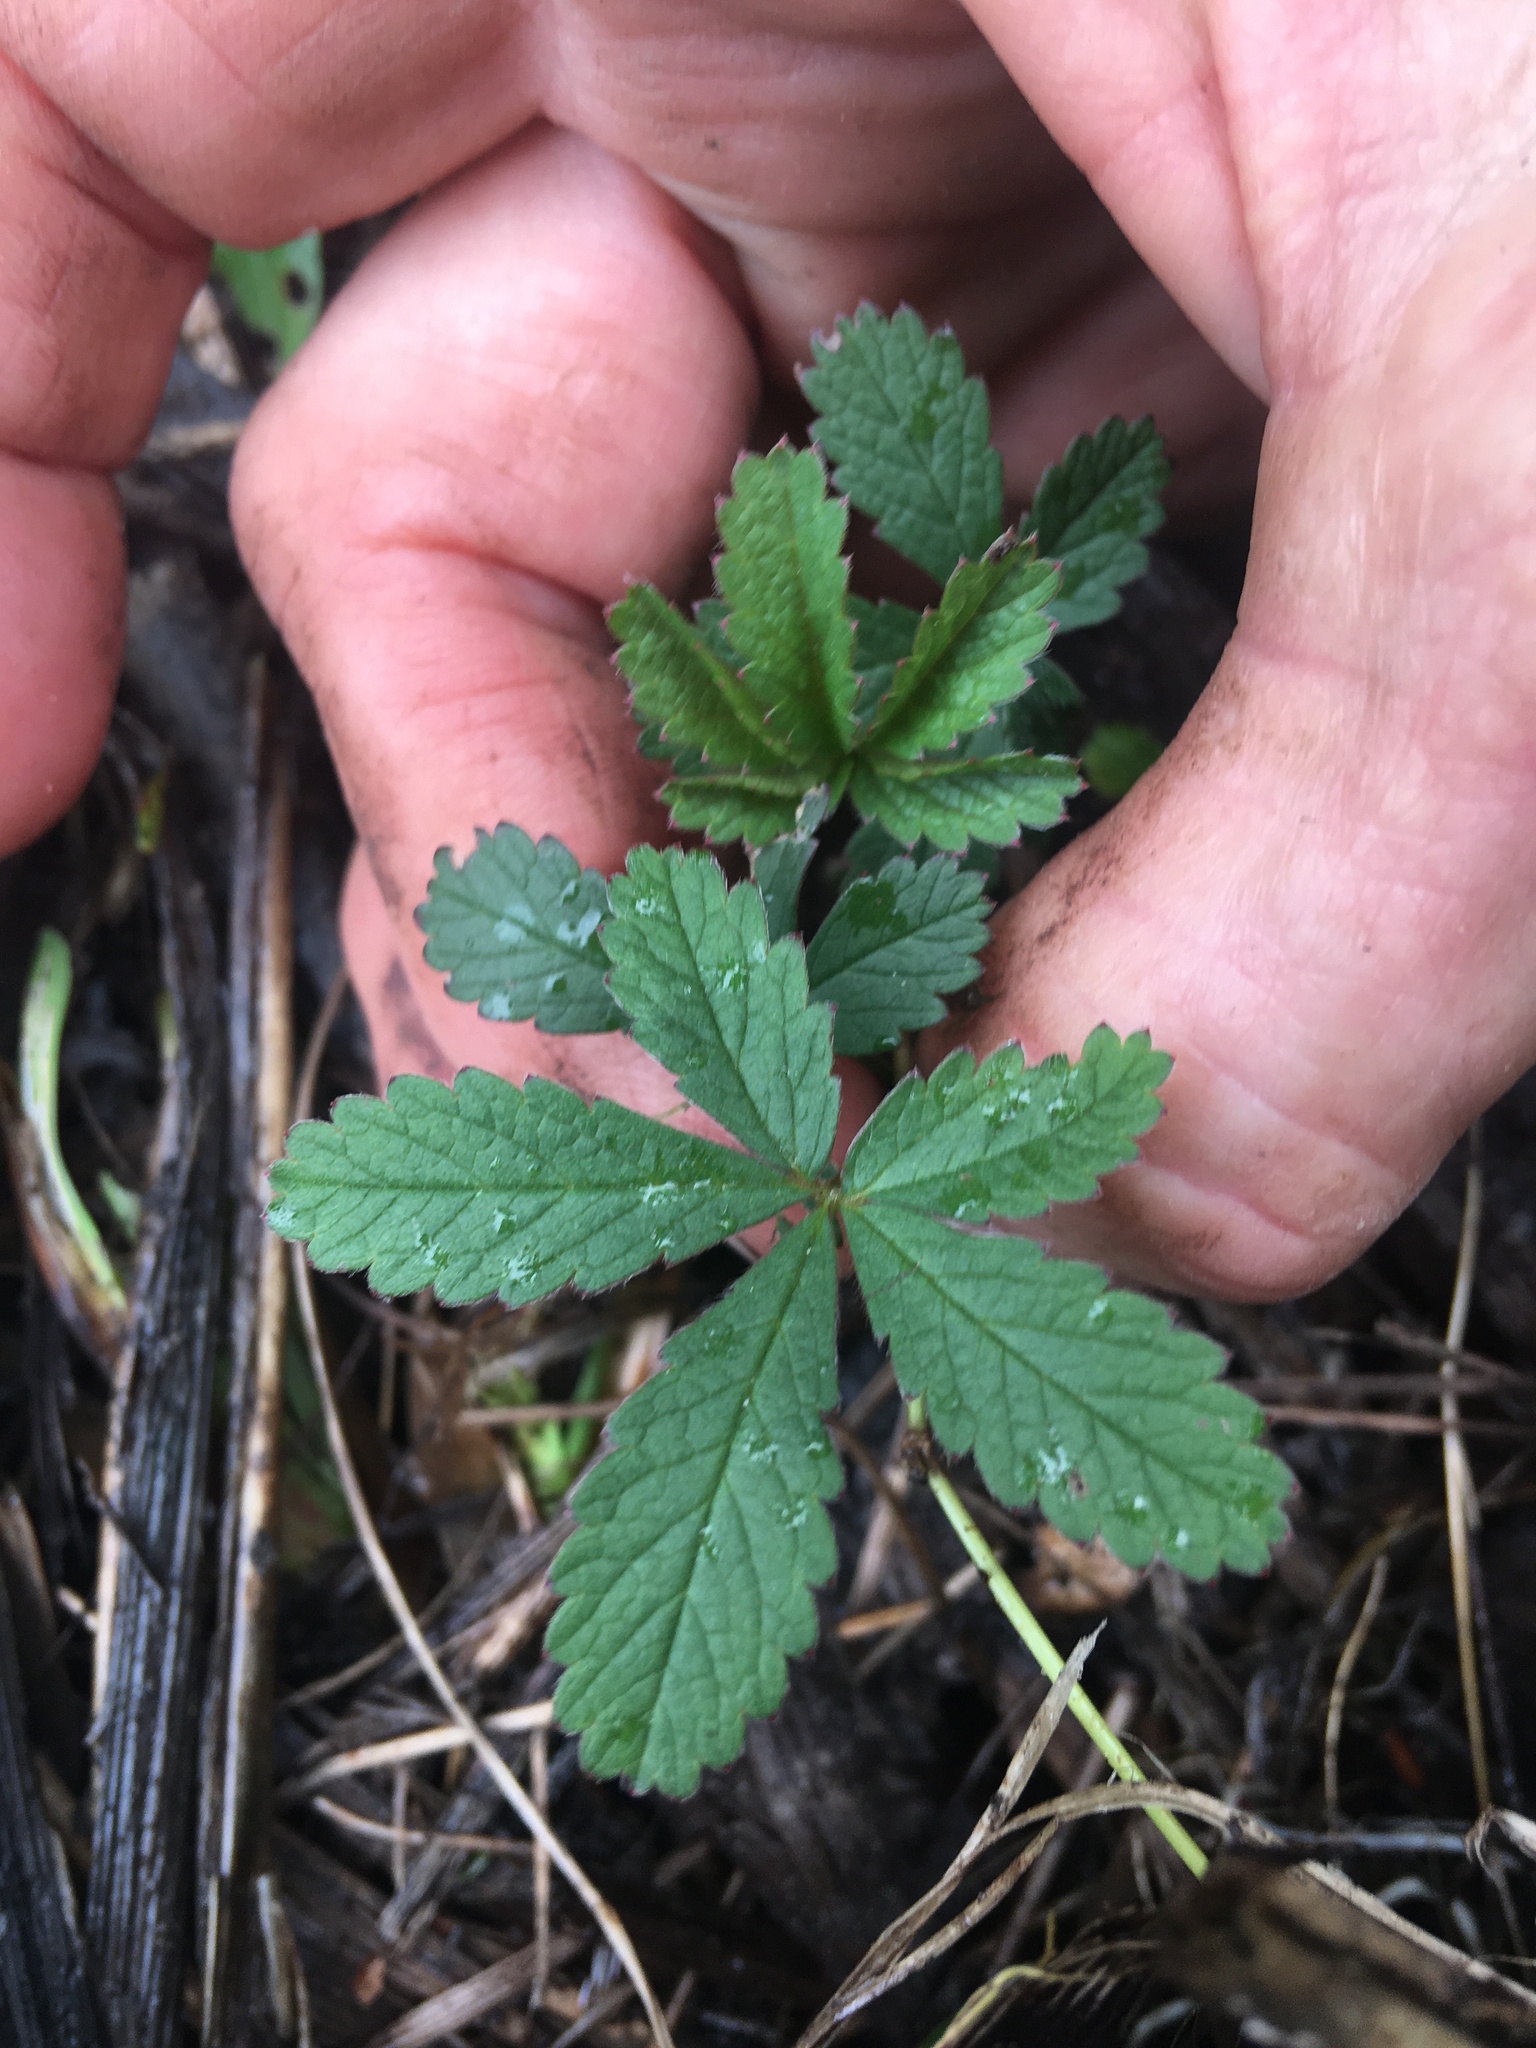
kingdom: Plantae
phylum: Tracheophyta
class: Magnoliopsida
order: Rosales
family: Rosaceae
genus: Potentilla
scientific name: Potentilla reptans
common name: Creeping cinquefoil
